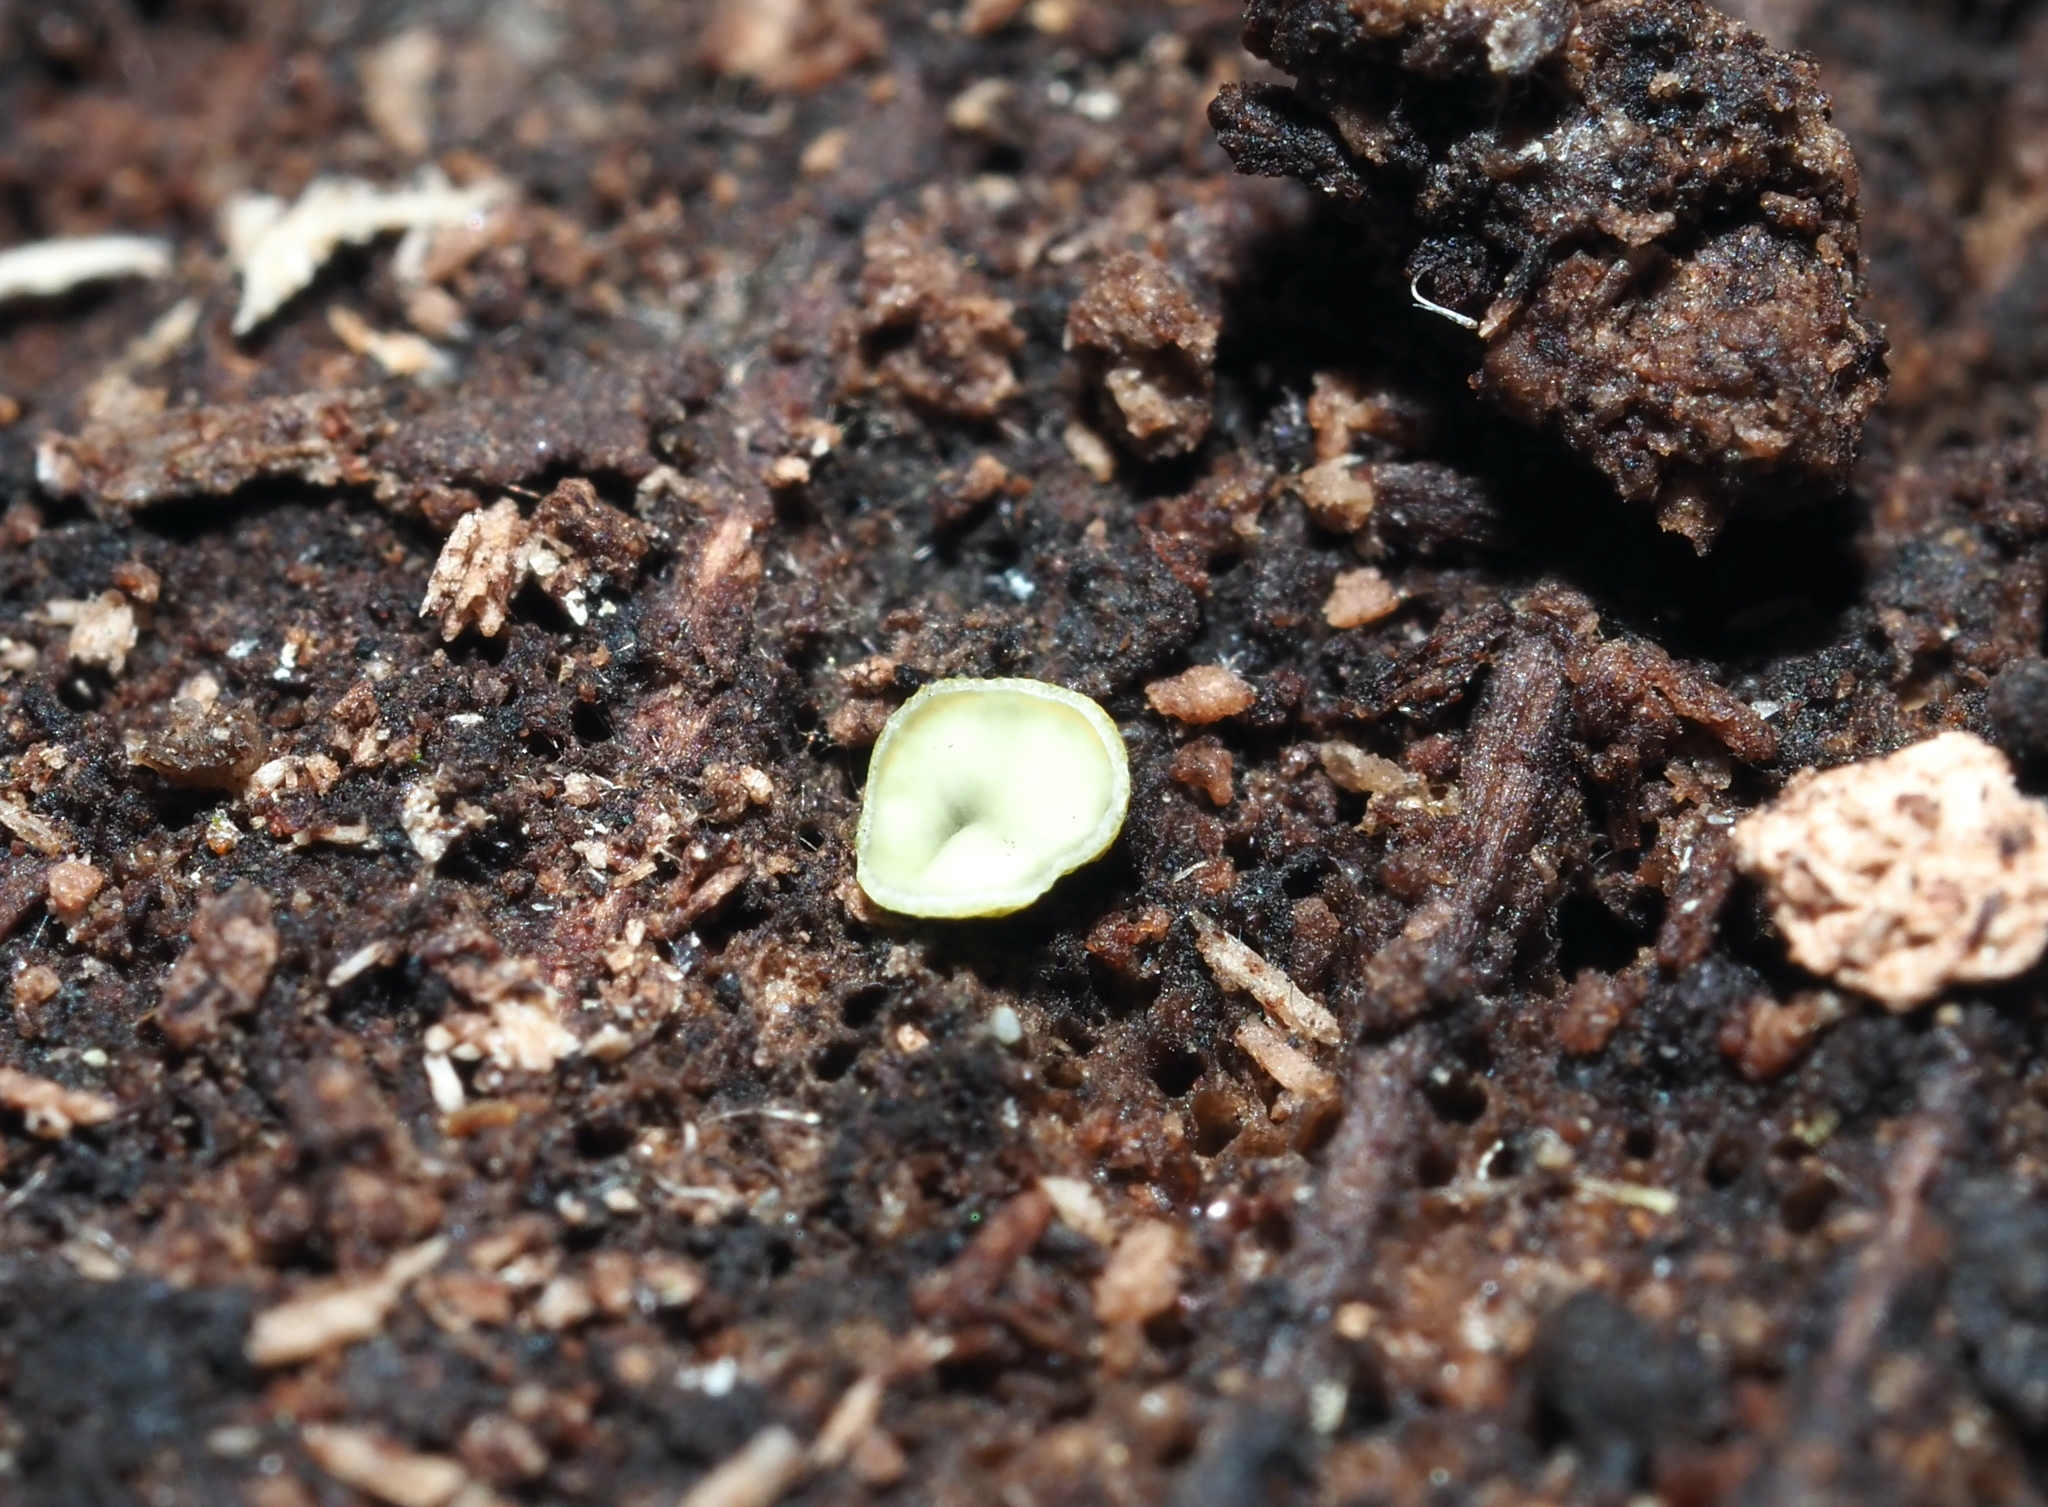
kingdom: Fungi
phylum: Ascomycota
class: Leotiomycetes
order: Helotiales
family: Chlorospleniaceae
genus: Chlorosplenium
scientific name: Chlorosplenium chlora
